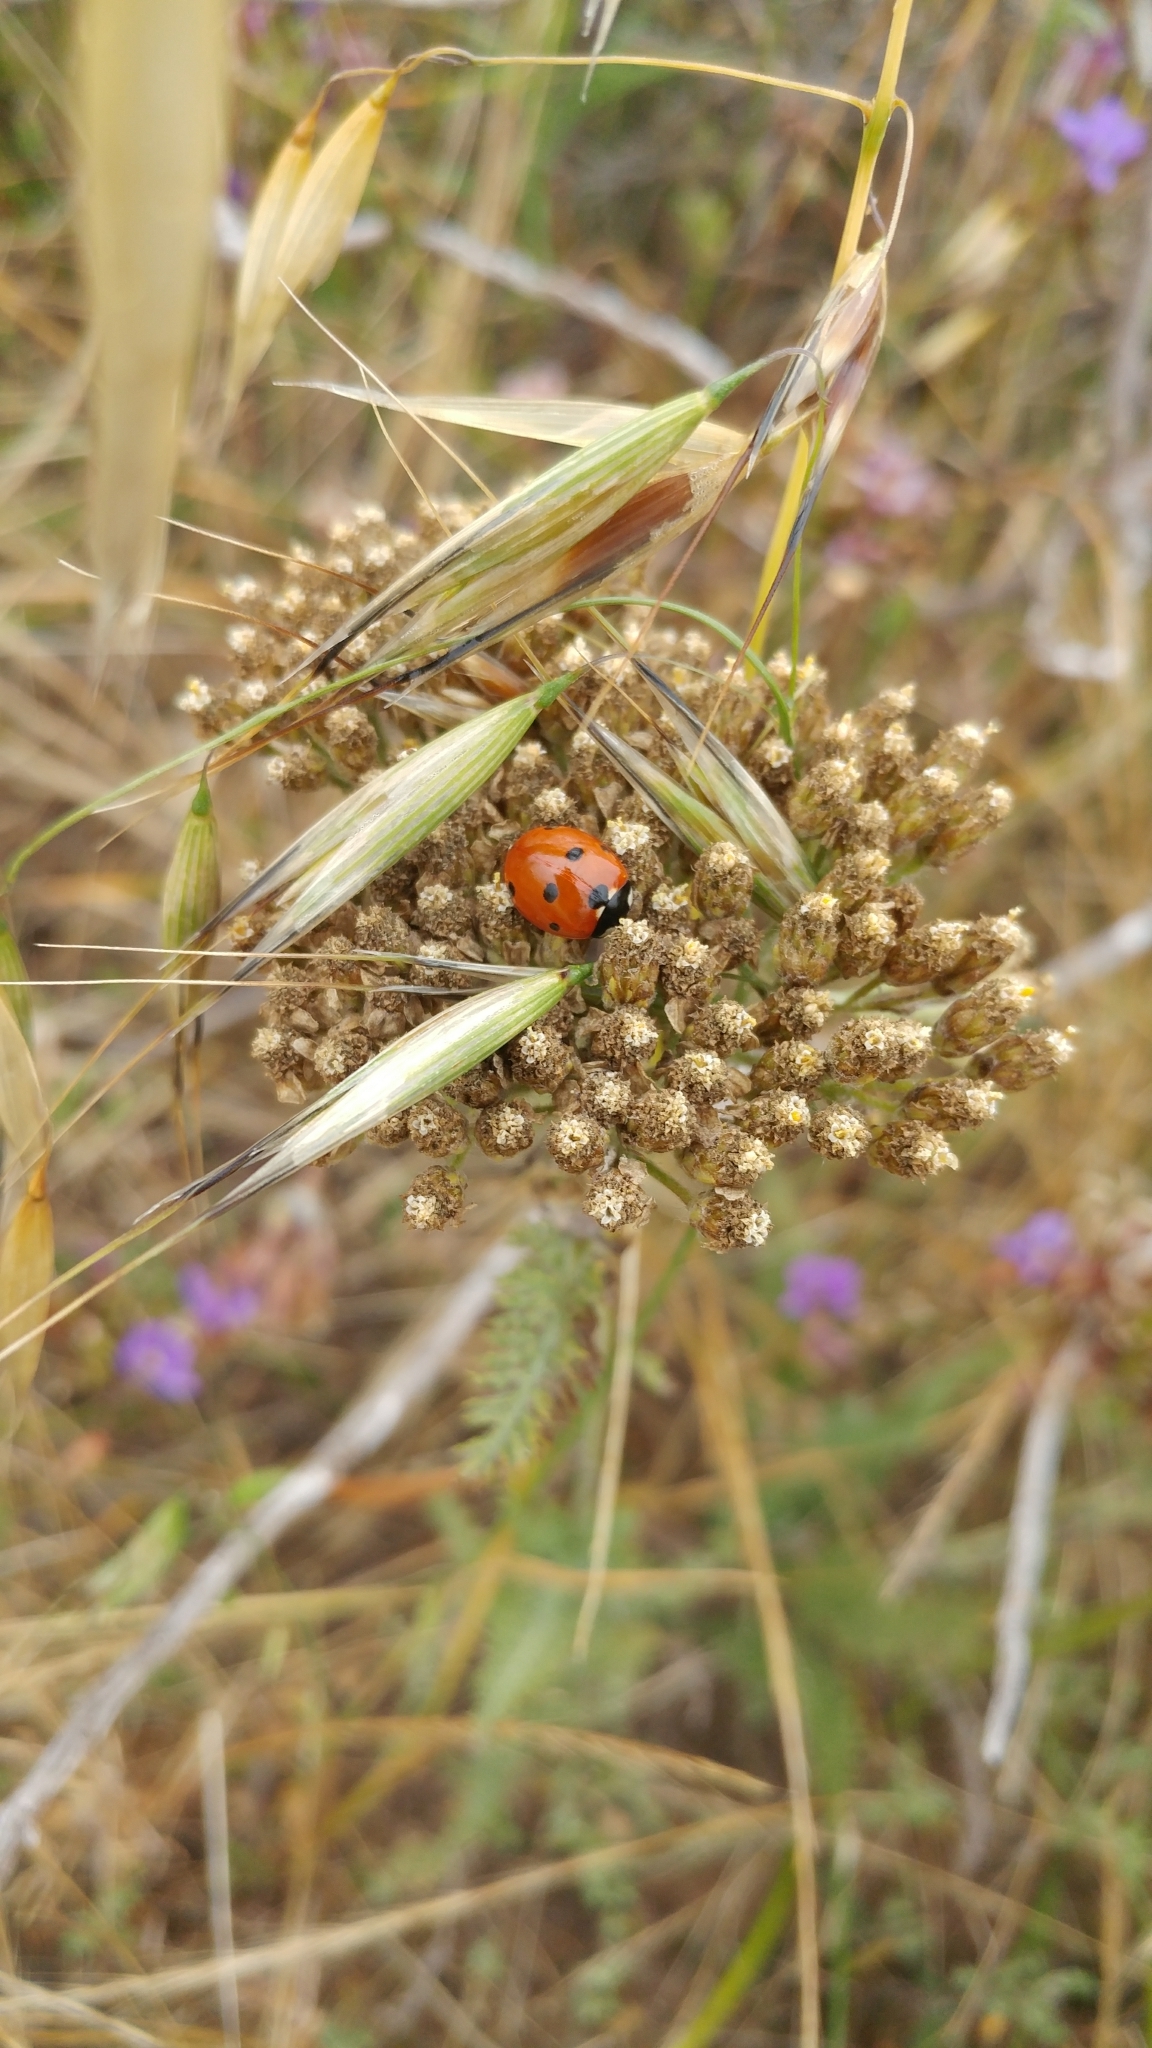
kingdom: Animalia
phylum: Arthropoda
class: Insecta
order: Coleoptera
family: Coccinellidae
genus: Coccinella
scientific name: Coccinella septempunctata
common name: Sevenspotted lady beetle
